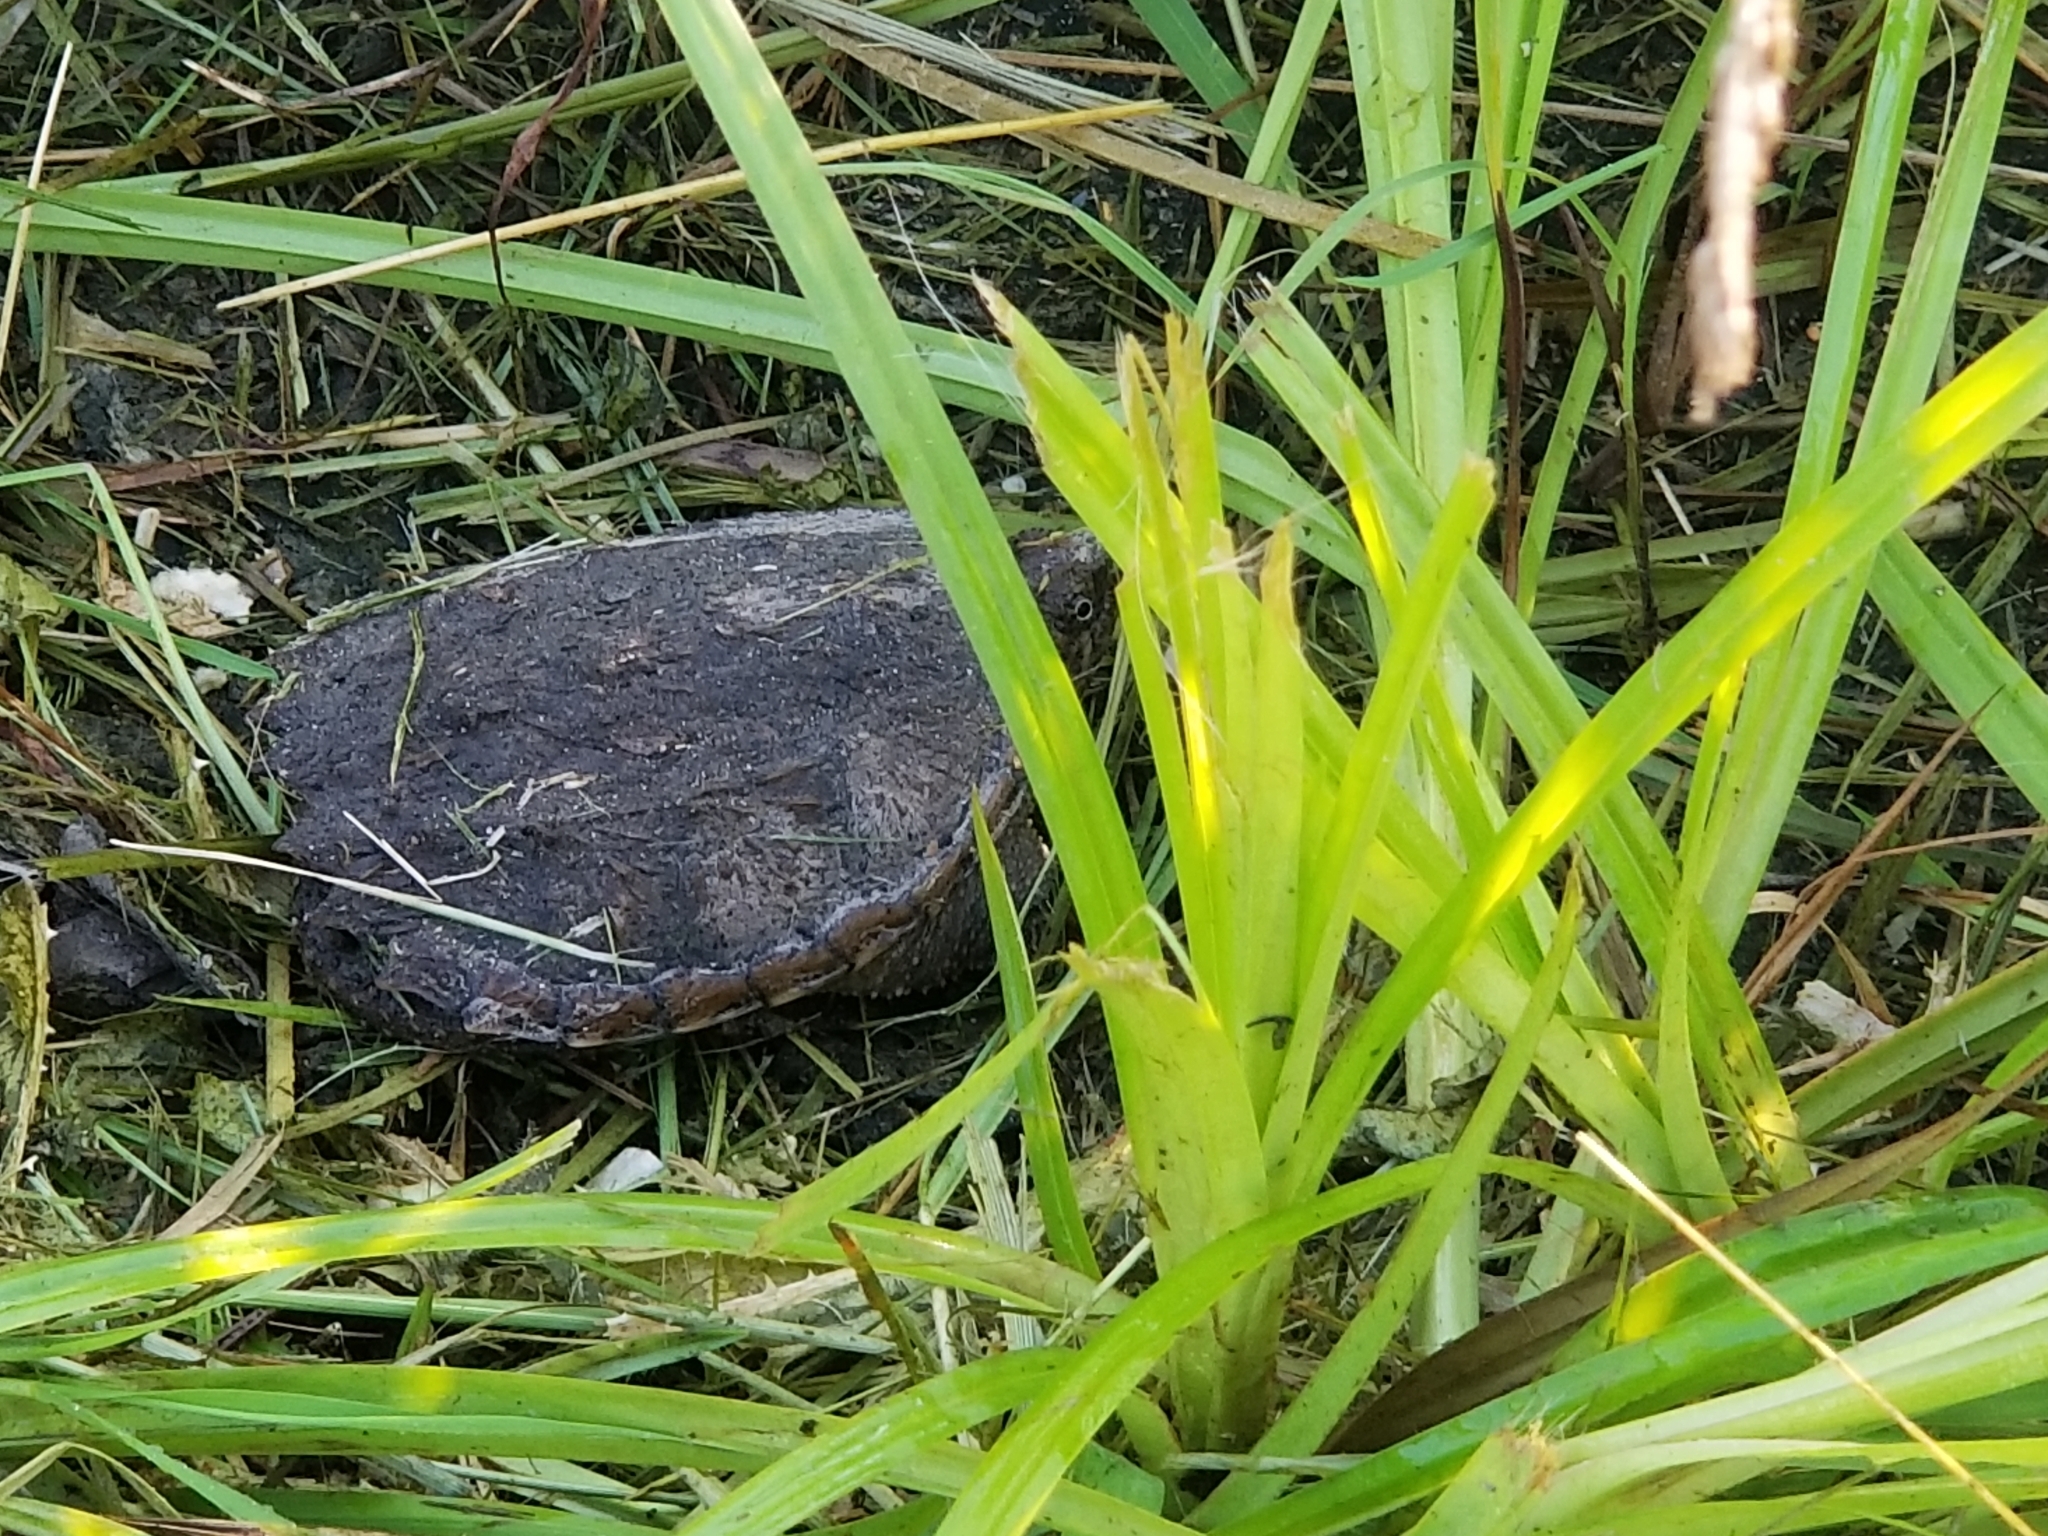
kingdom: Animalia
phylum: Chordata
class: Testudines
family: Chelydridae
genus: Chelydra
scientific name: Chelydra serpentina
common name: Common snapping turtle
